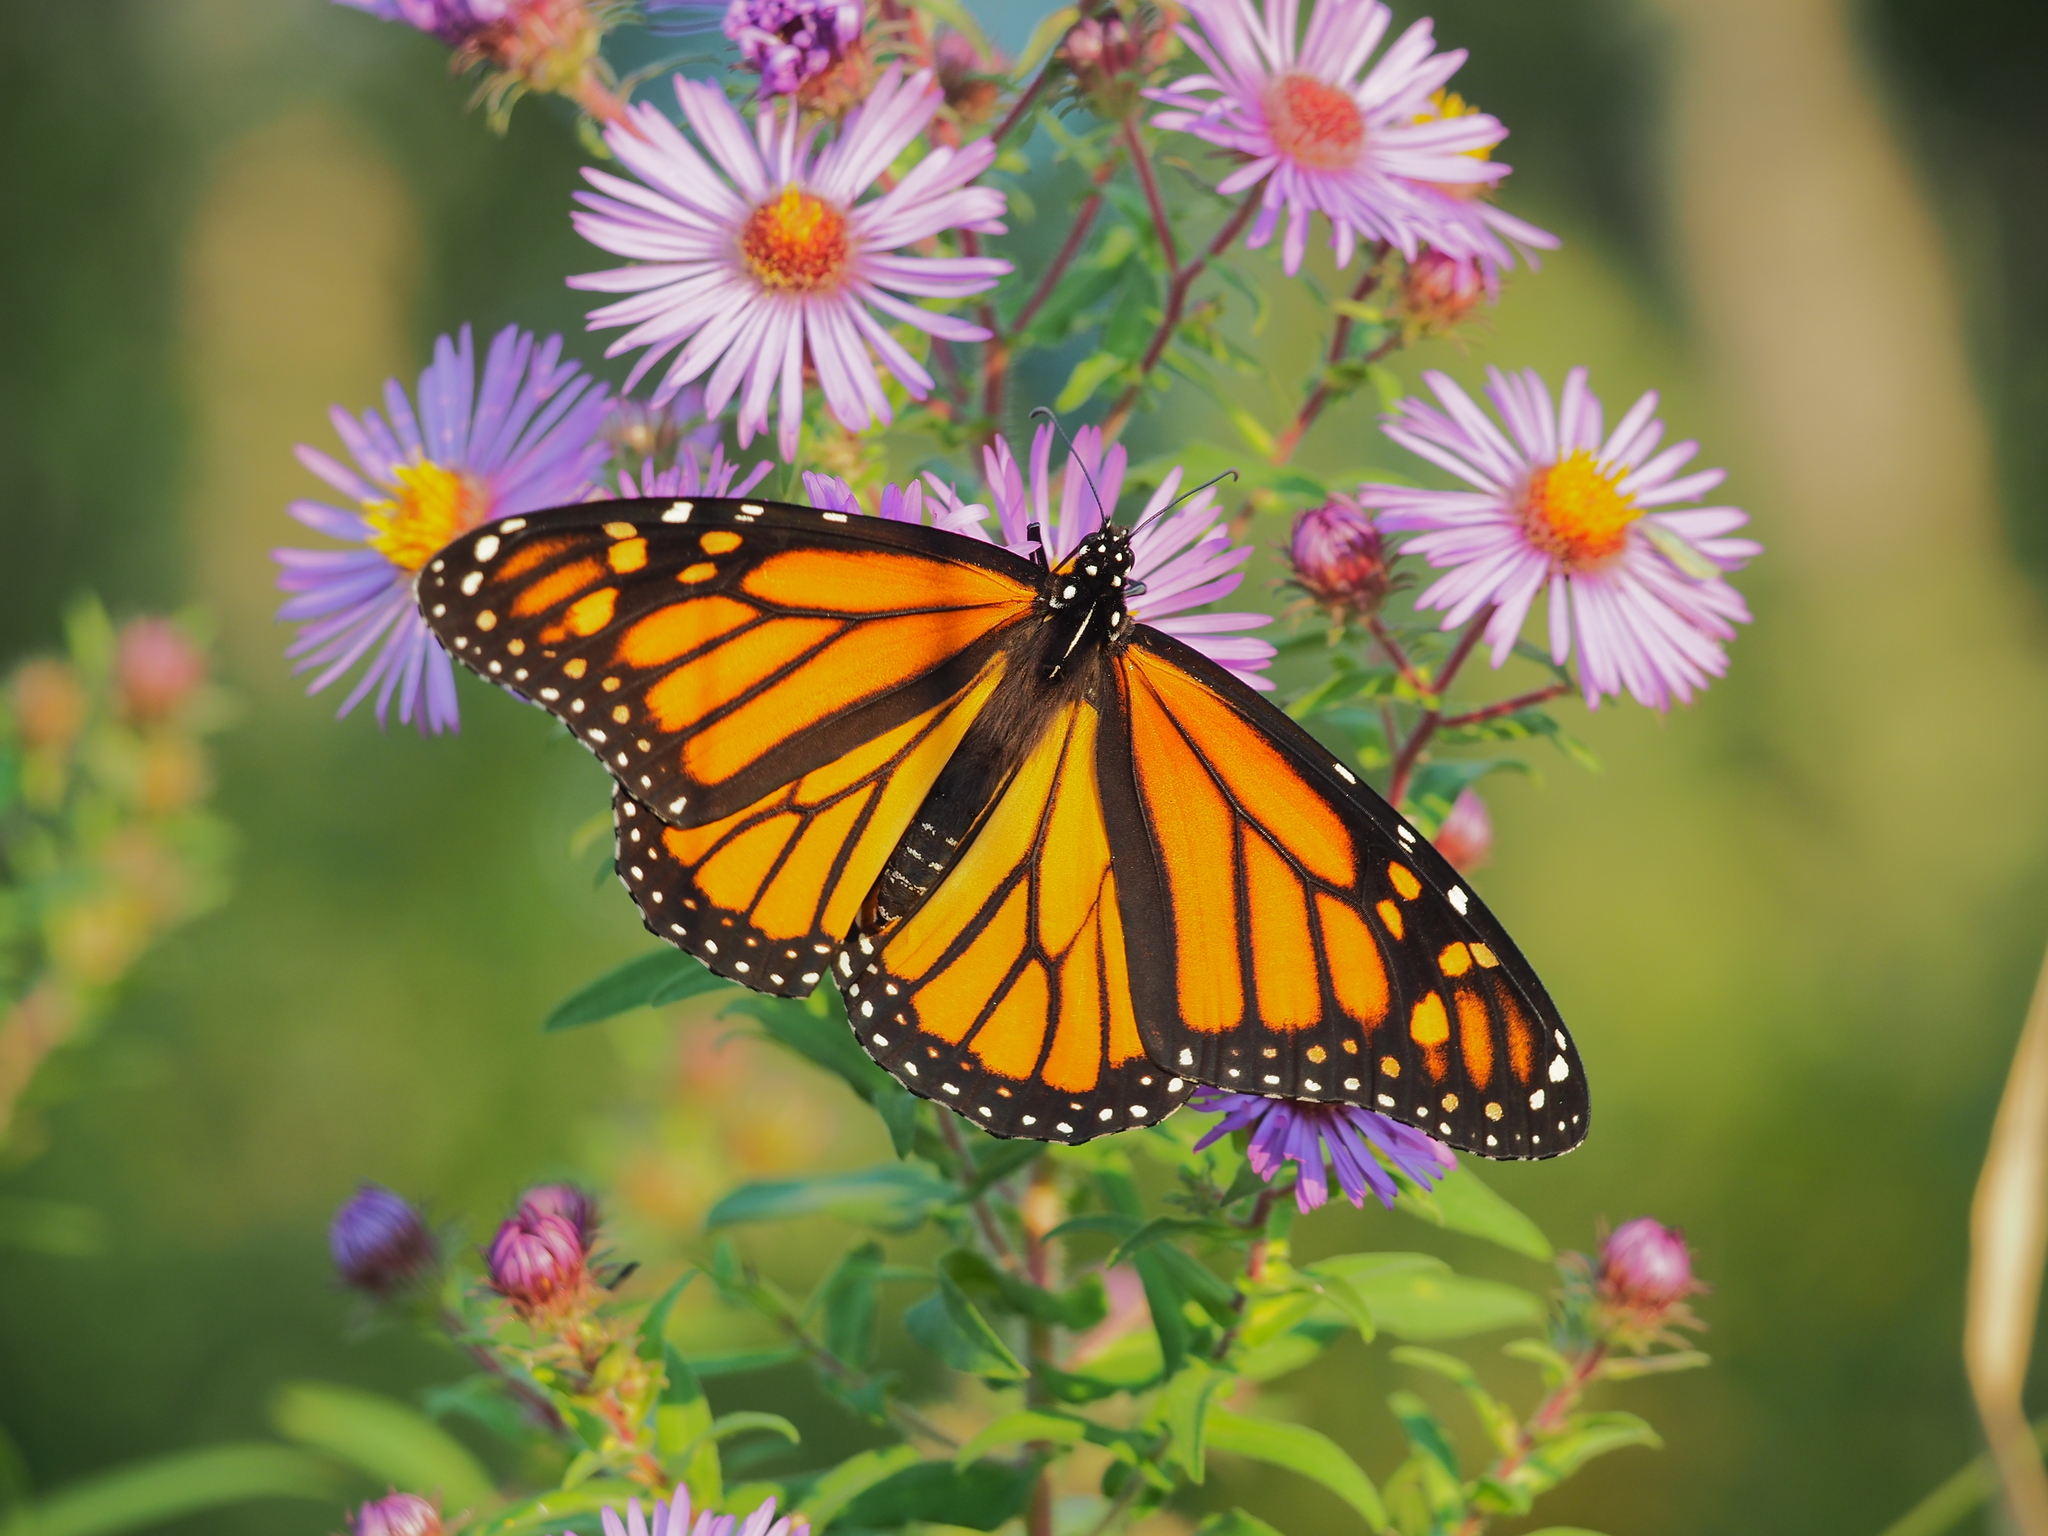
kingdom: Animalia
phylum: Arthropoda
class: Insecta
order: Lepidoptera
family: Nymphalidae
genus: Danaus
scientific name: Danaus plexippus
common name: Monarch
